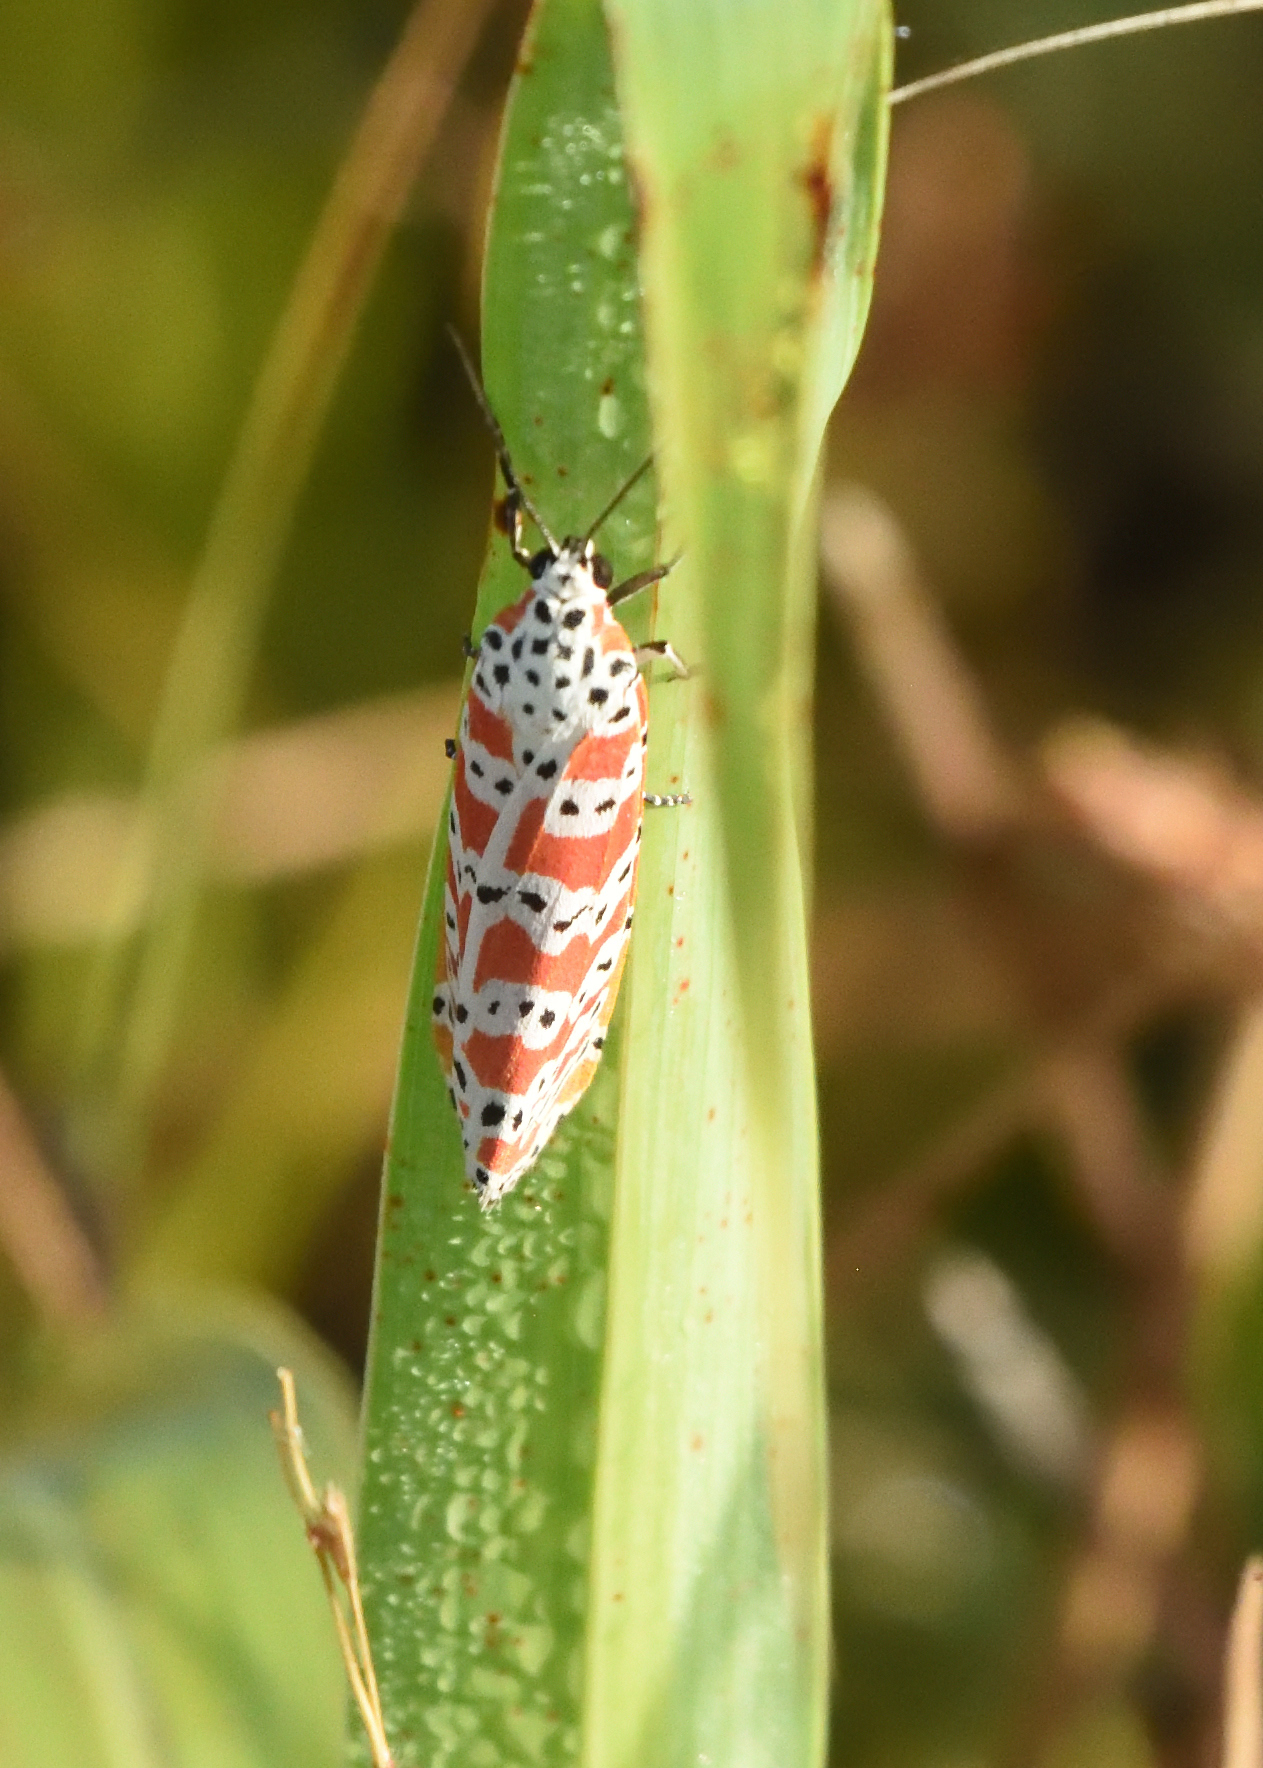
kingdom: Animalia
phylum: Arthropoda
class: Insecta
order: Lepidoptera
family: Erebidae
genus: Utetheisa
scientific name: Utetheisa ornatrix
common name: Beautiful utetheisa
